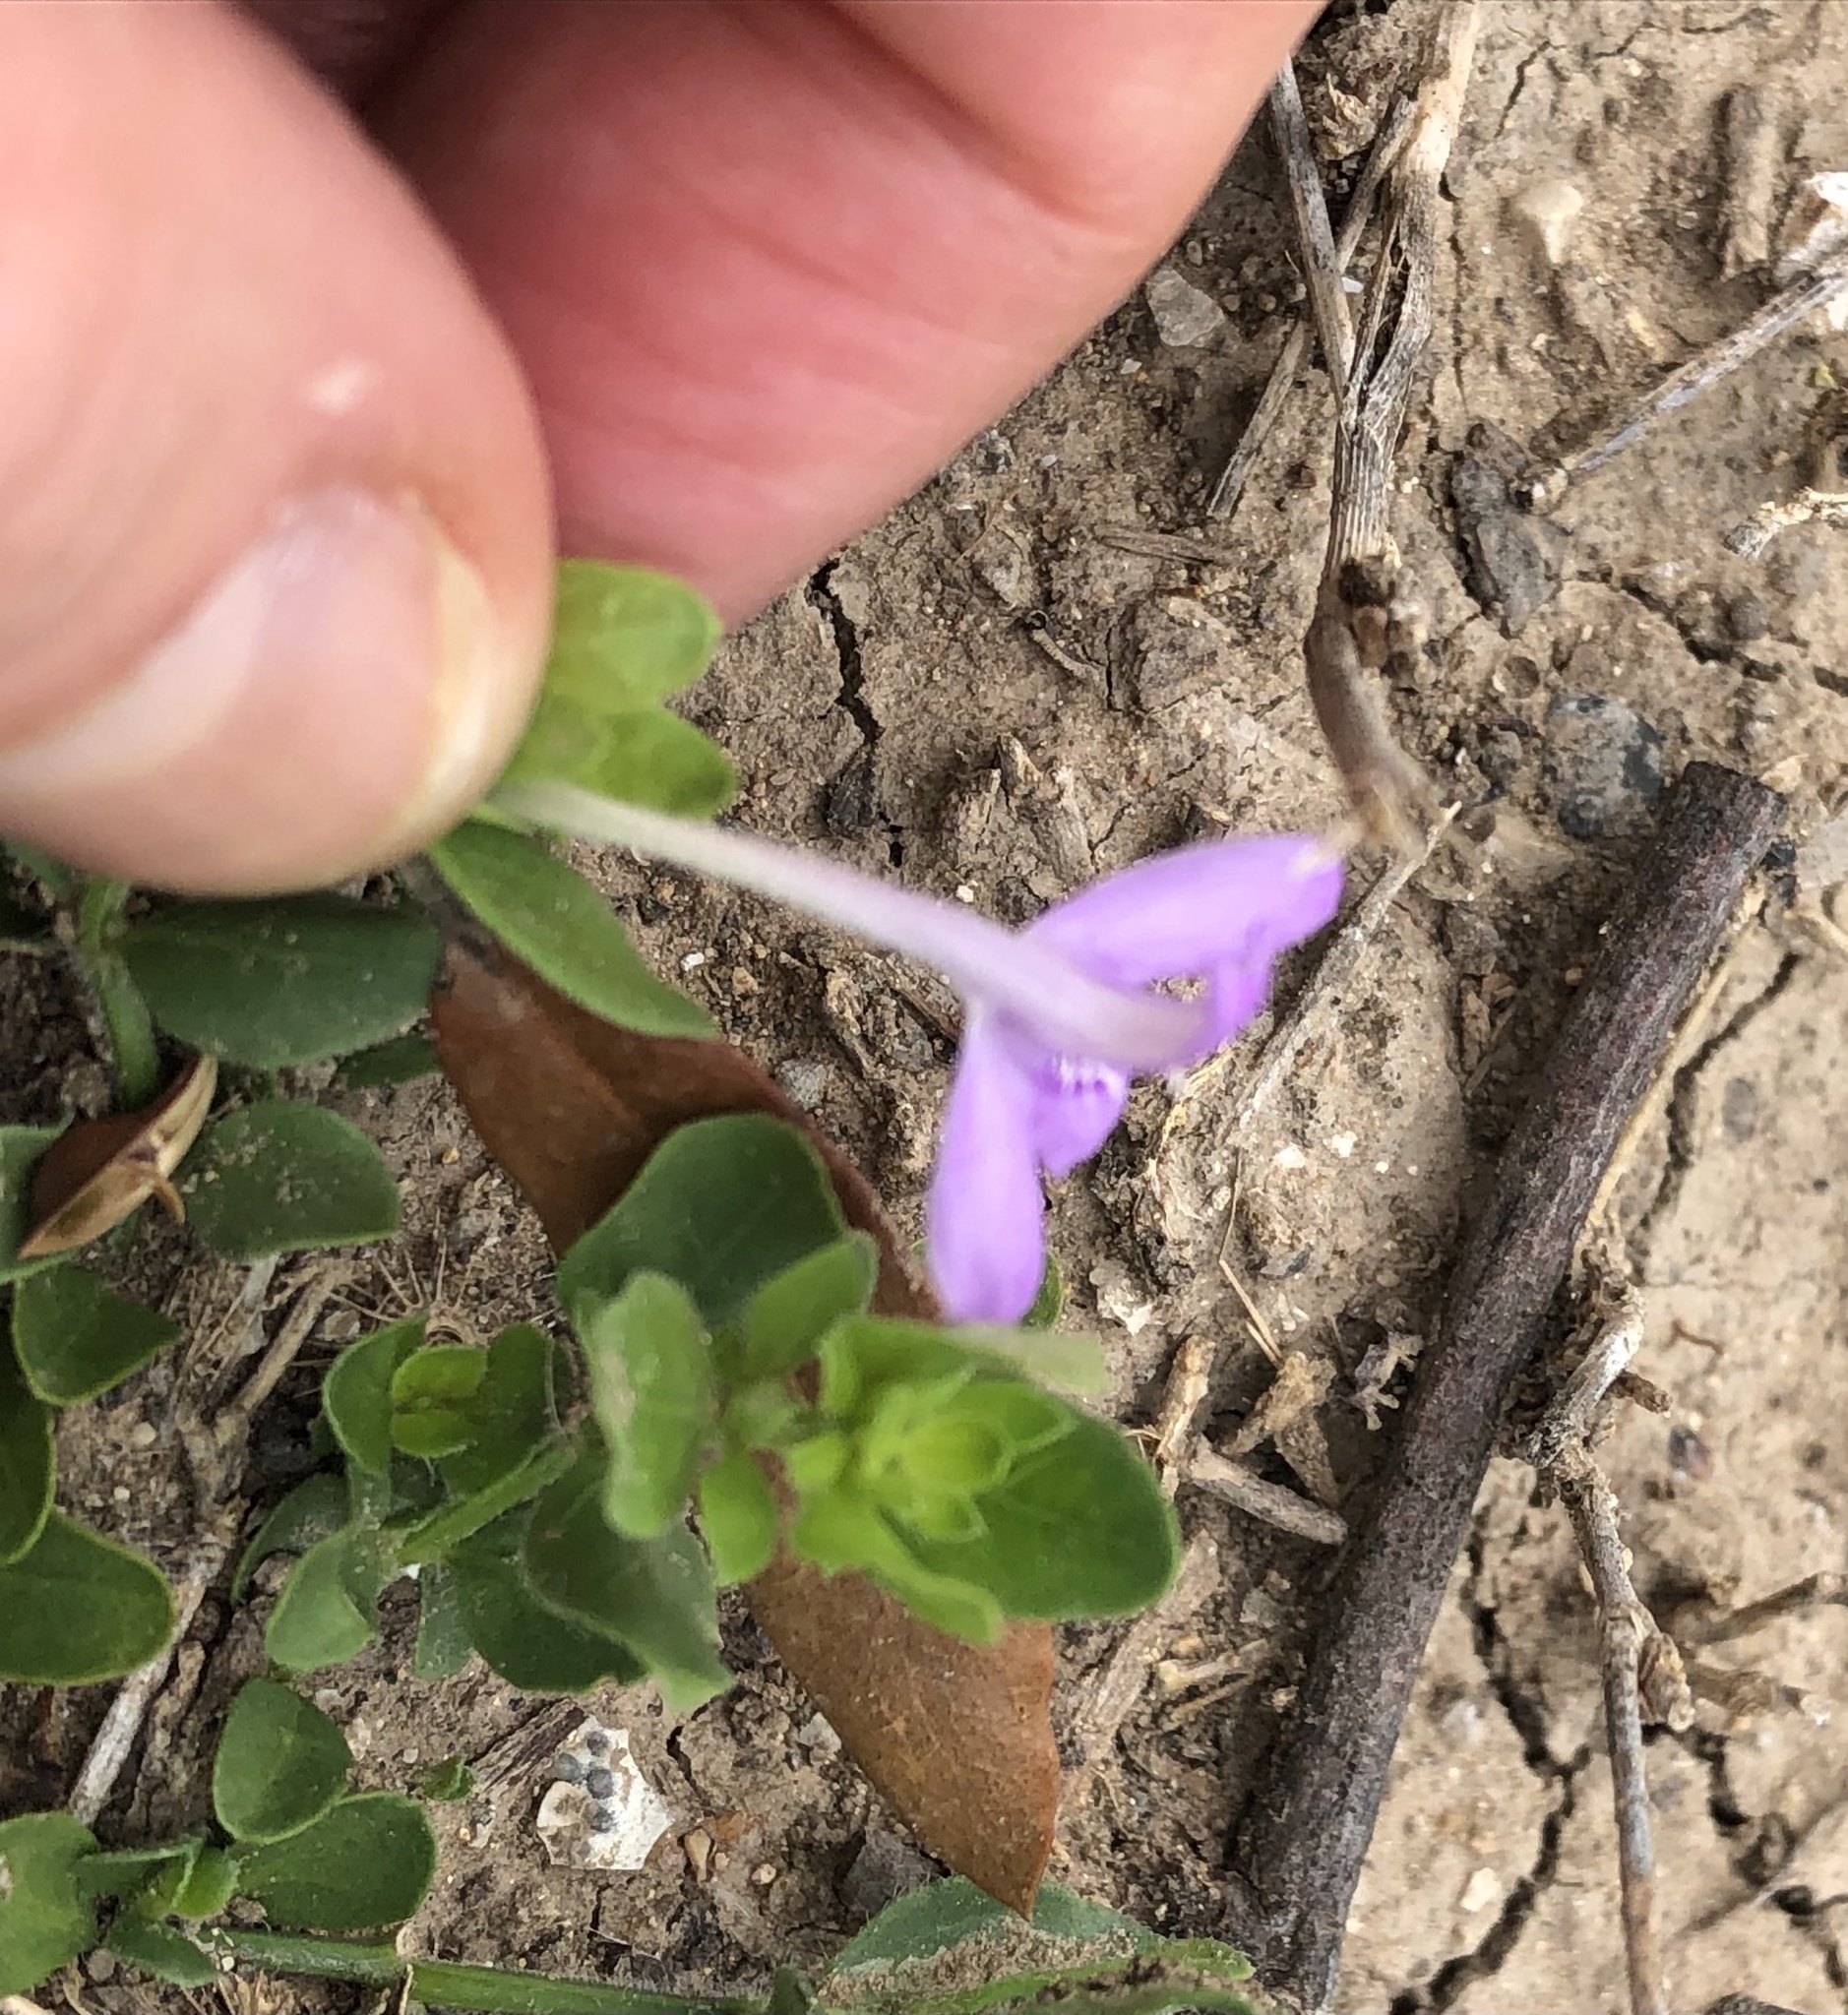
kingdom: Plantae
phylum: Tracheophyta
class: Magnoliopsida
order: Lamiales
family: Acanthaceae
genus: Justicia
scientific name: Justicia pilosella
